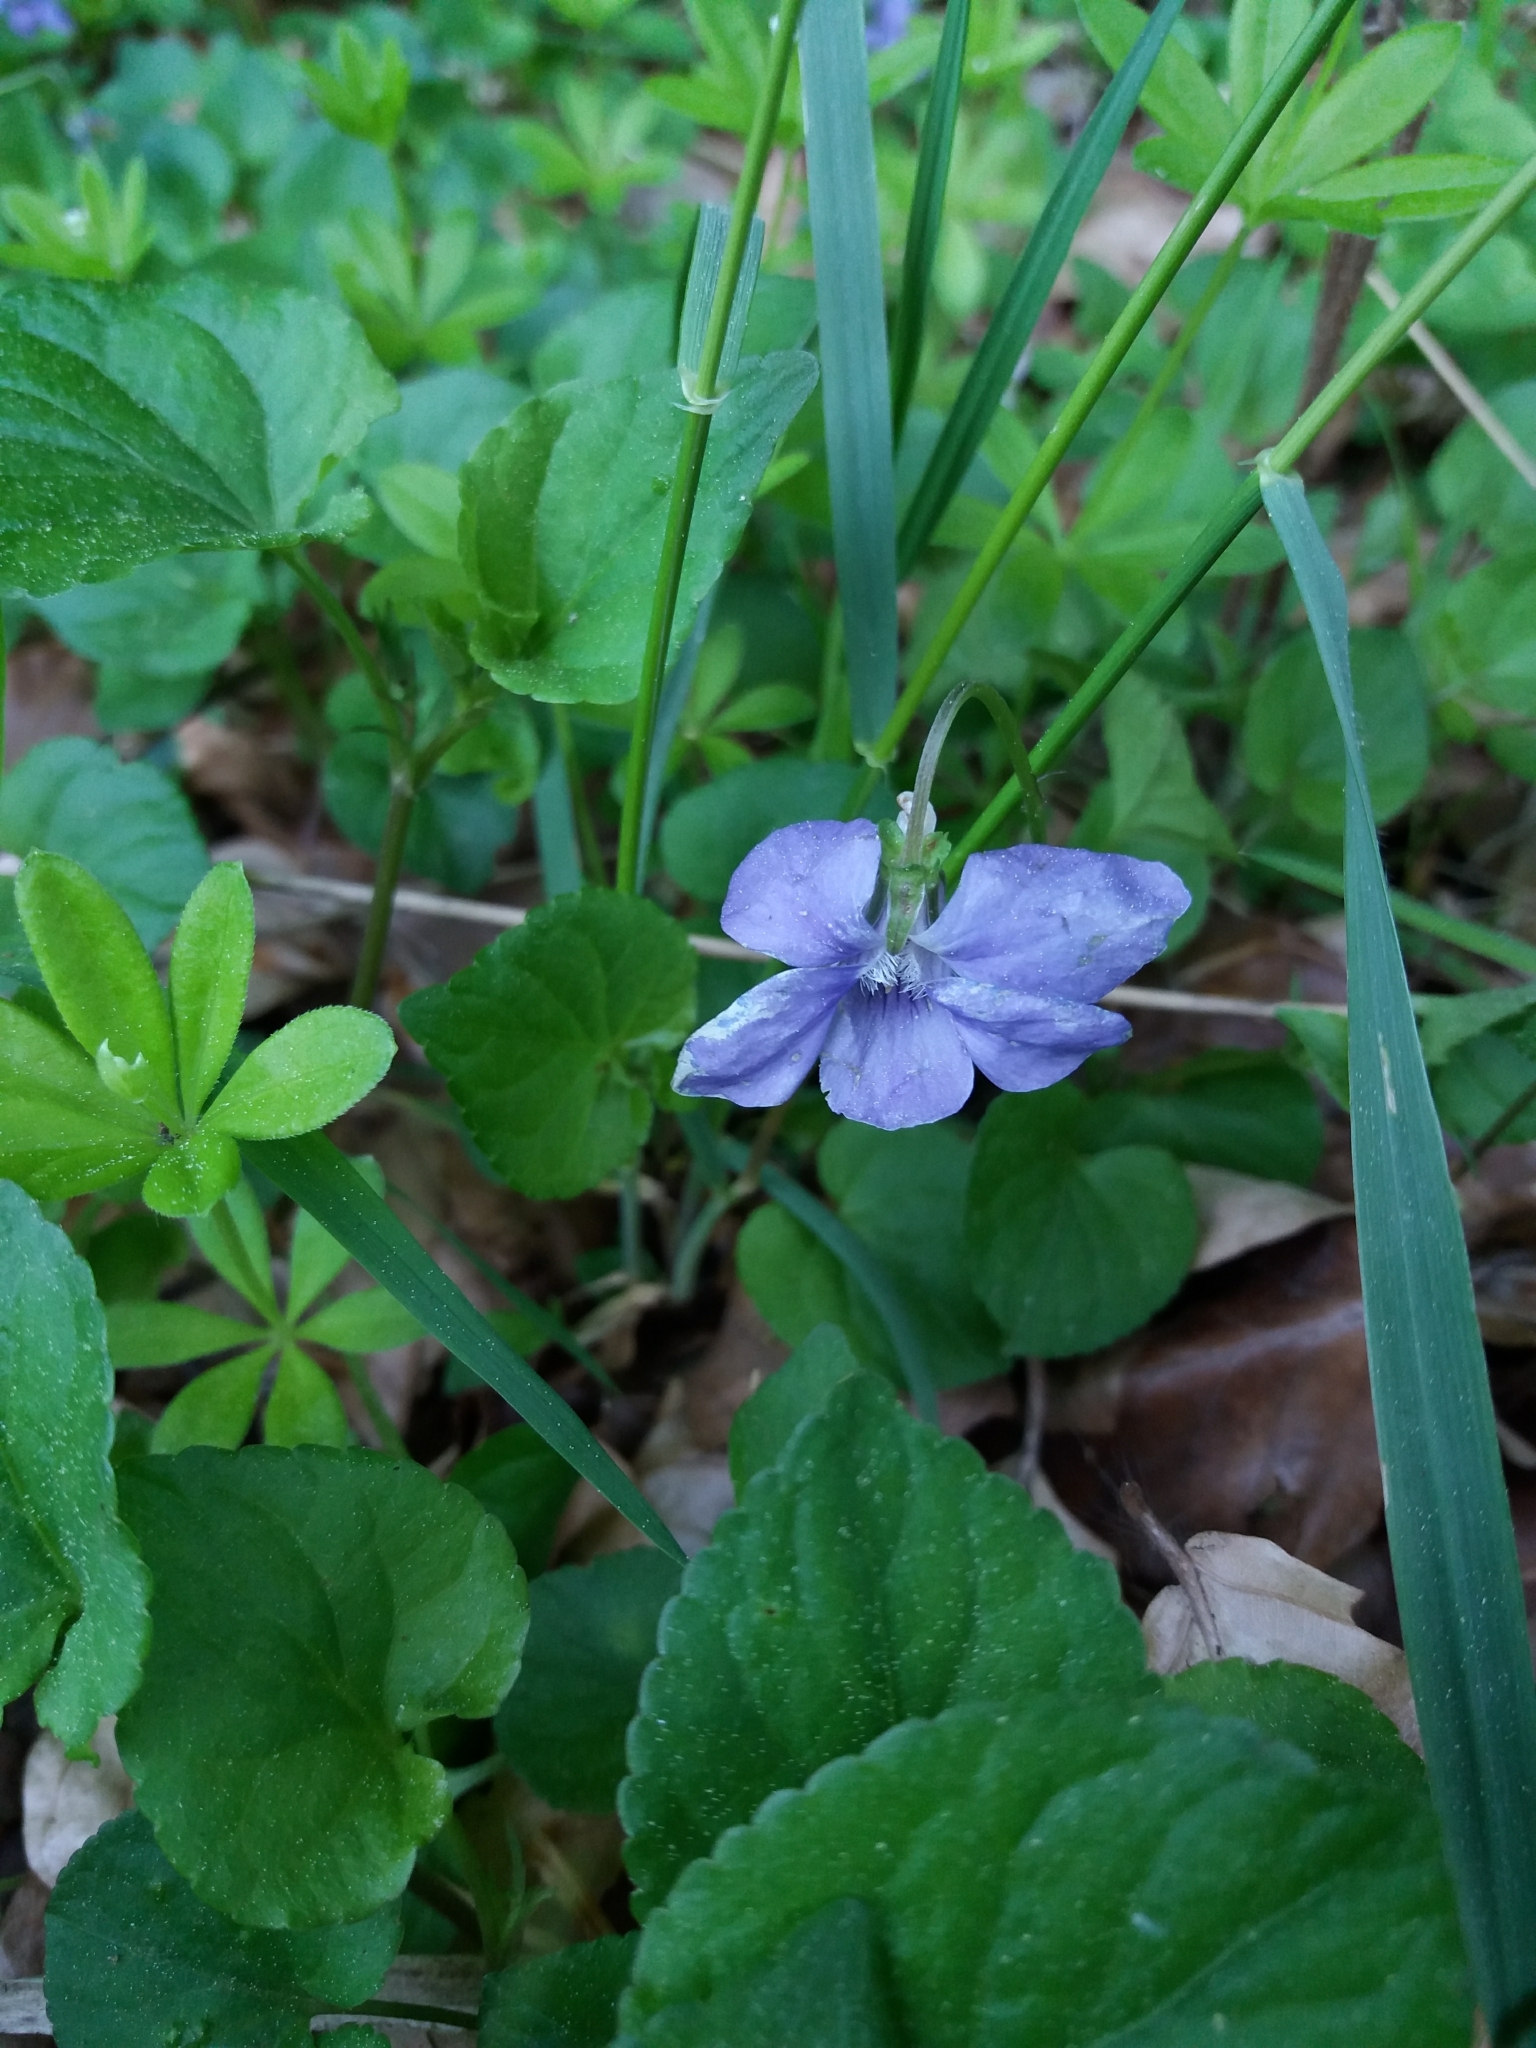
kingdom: Plantae
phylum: Tracheophyta
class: Magnoliopsida
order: Malpighiales
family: Violaceae
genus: Viola
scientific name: Viola reichenbachiana
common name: Early dog-violet
